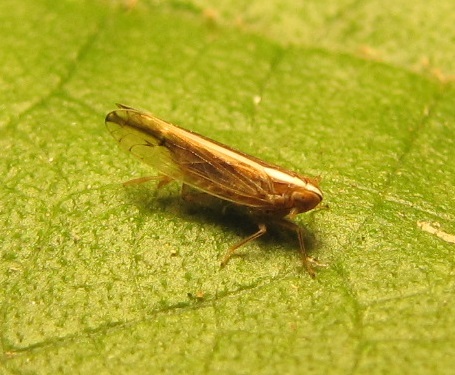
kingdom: Animalia
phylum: Arthropoda
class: Insecta
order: Hemiptera
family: Delphacidae
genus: Stenocranus
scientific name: Stenocranus dorsalis
